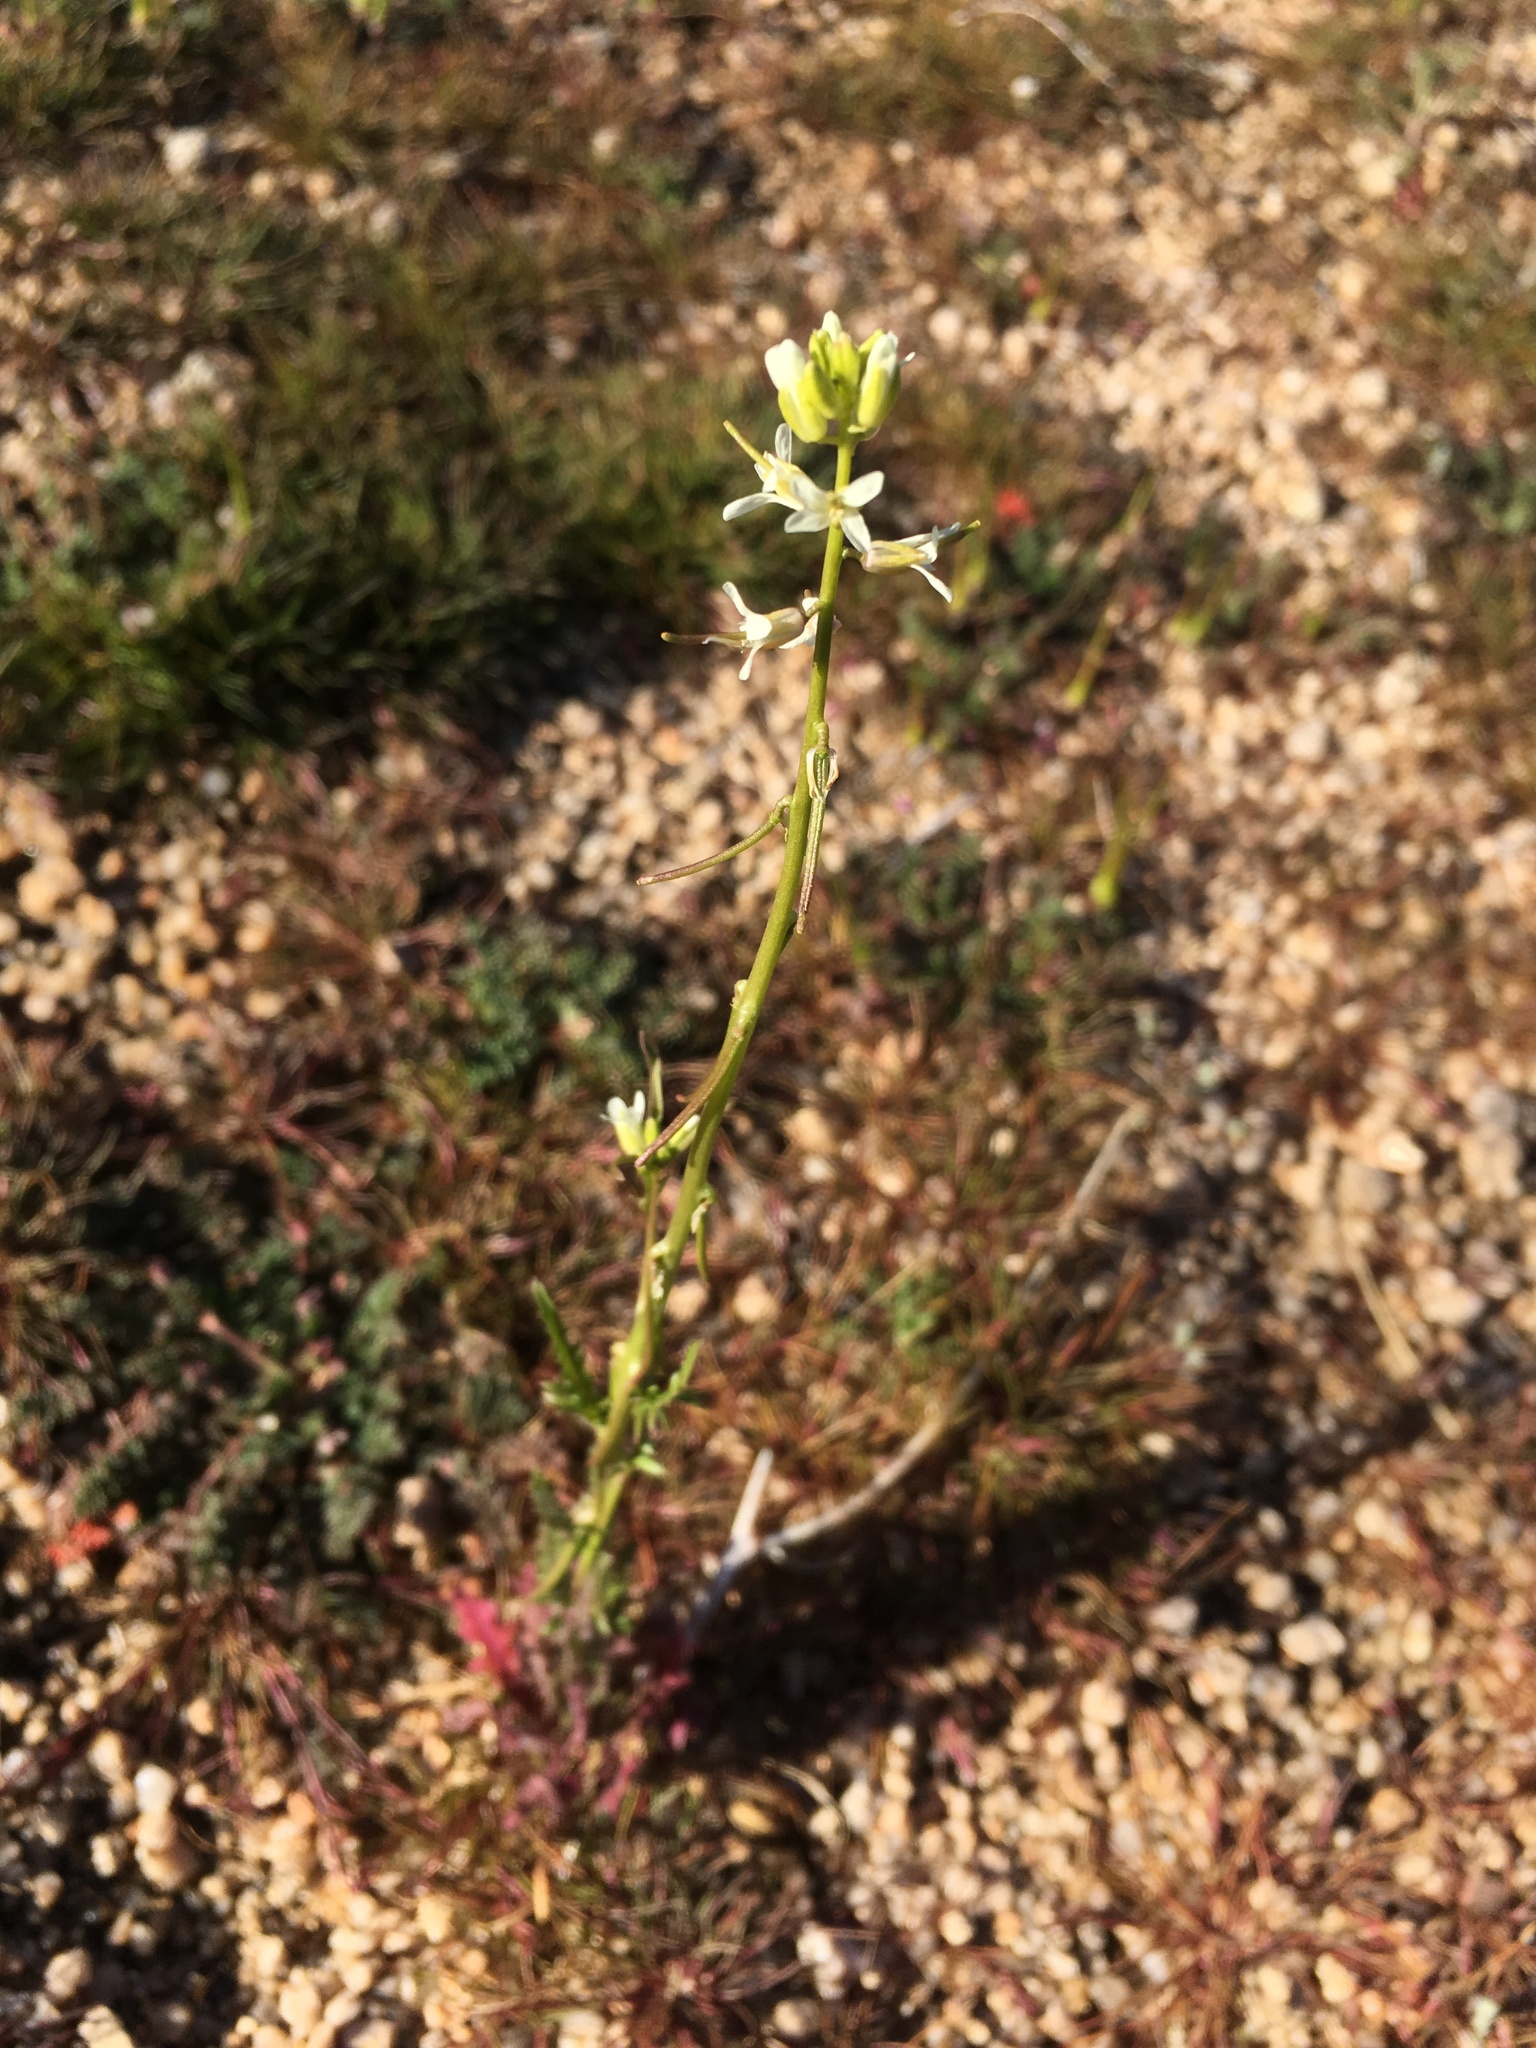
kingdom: Plantae
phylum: Tracheophyta
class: Magnoliopsida
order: Brassicales
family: Brassicaceae
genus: Streptanthus
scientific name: Streptanthus lasiophyllus
